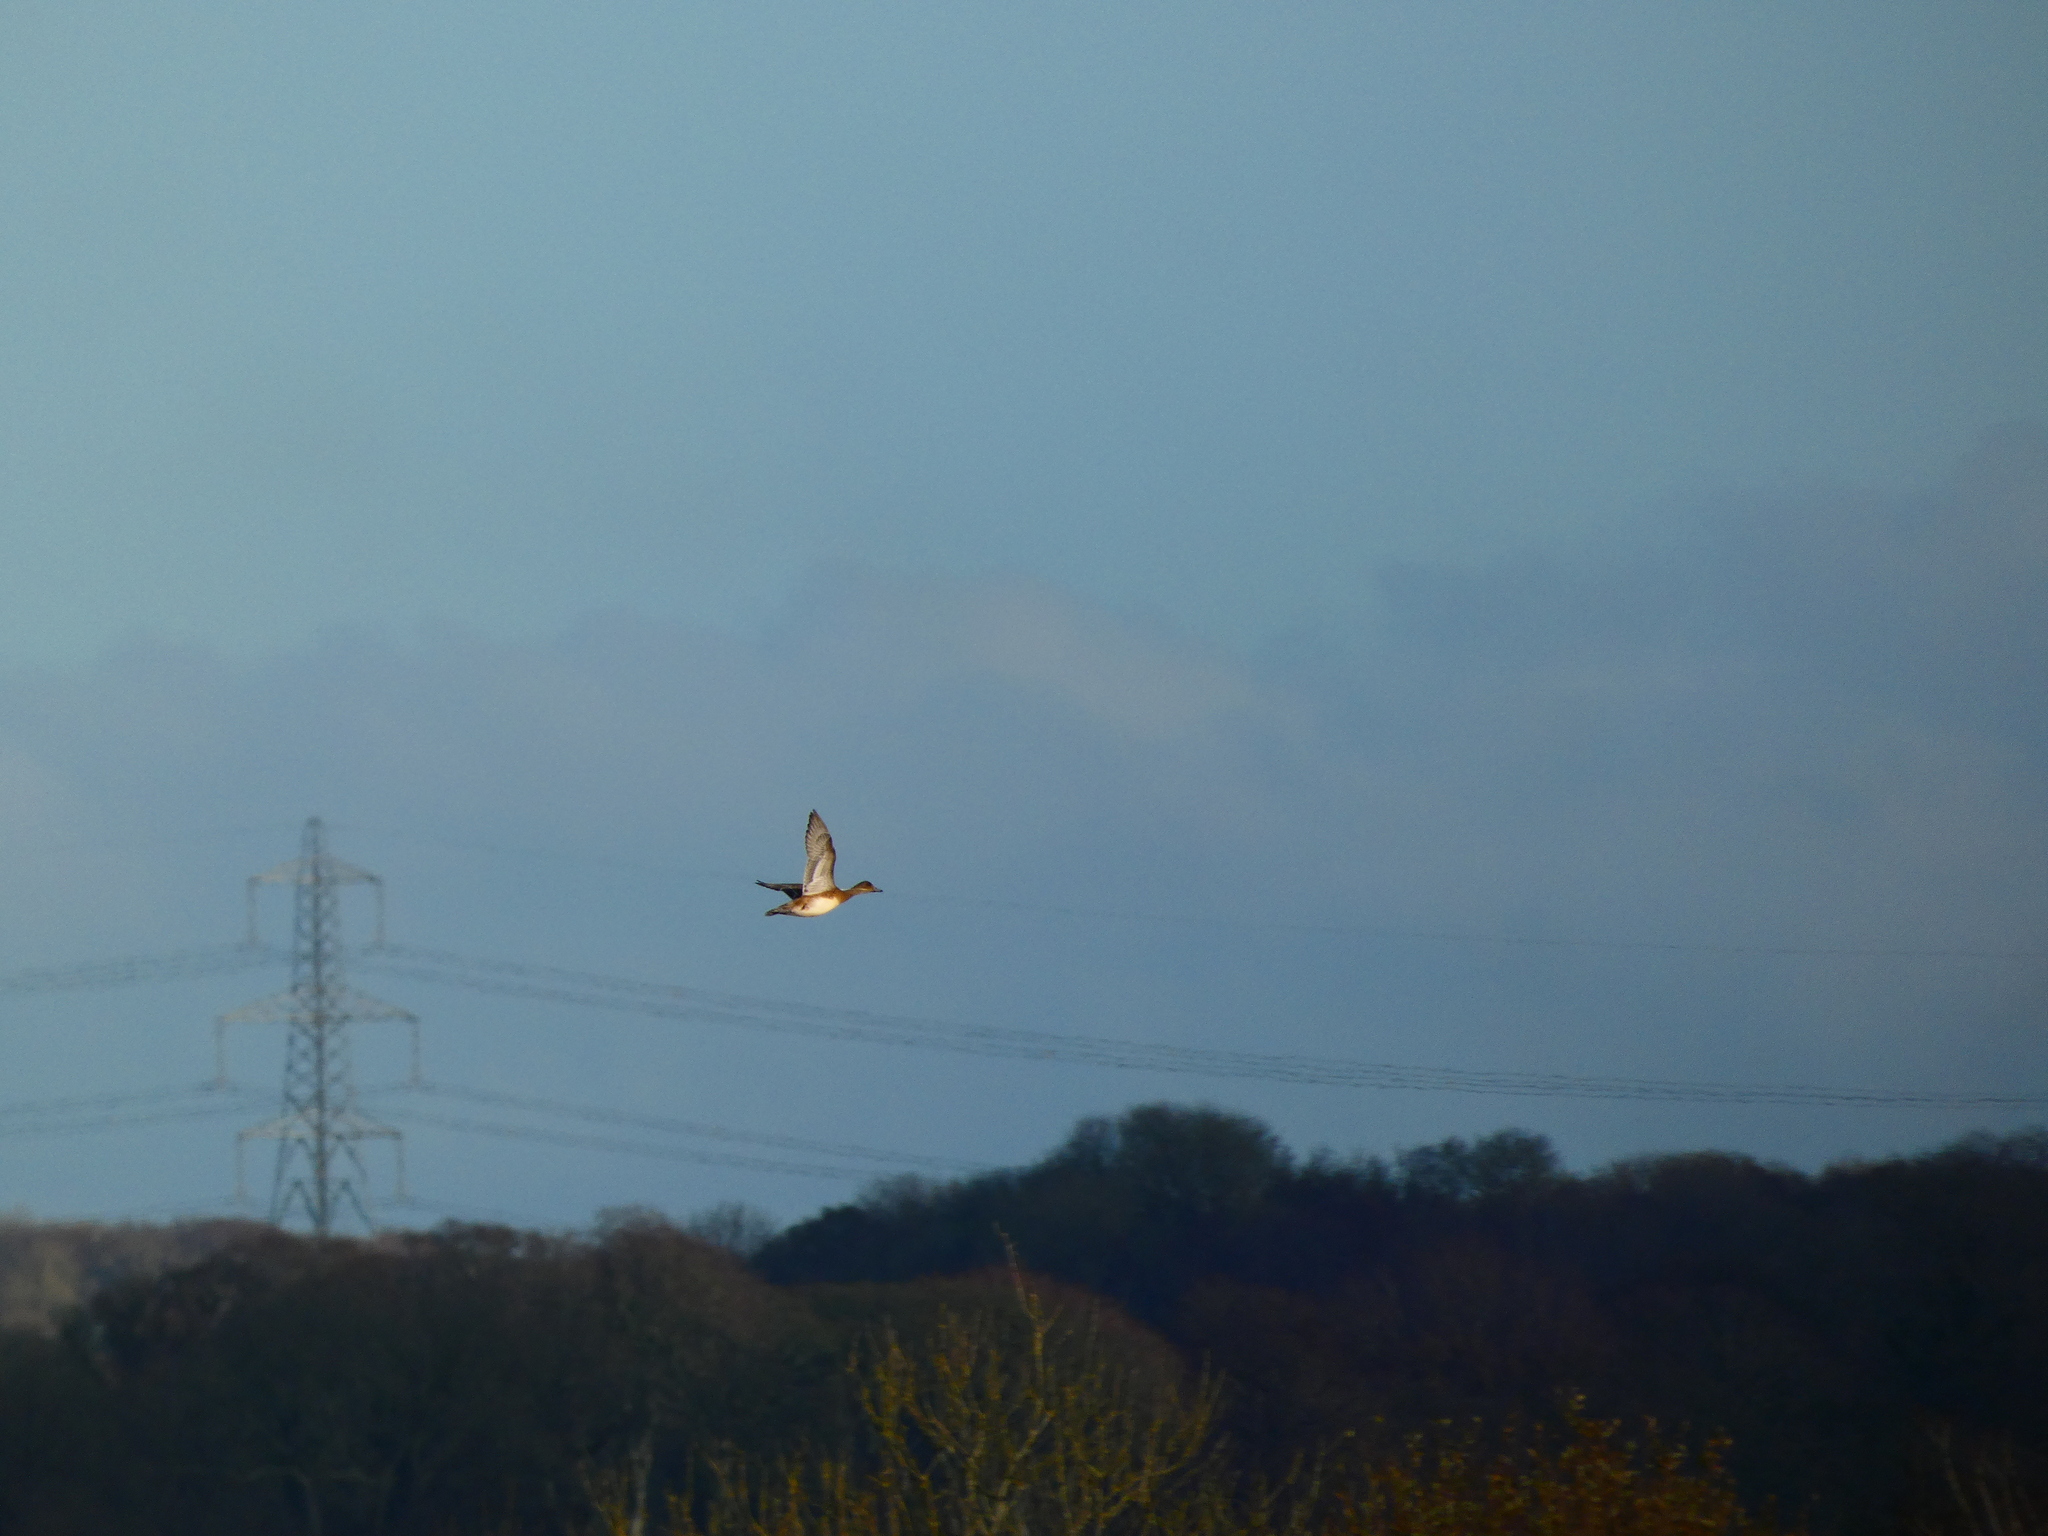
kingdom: Animalia
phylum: Chordata
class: Aves
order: Anseriformes
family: Anatidae
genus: Mareca
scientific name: Mareca penelope
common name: Eurasian wigeon
